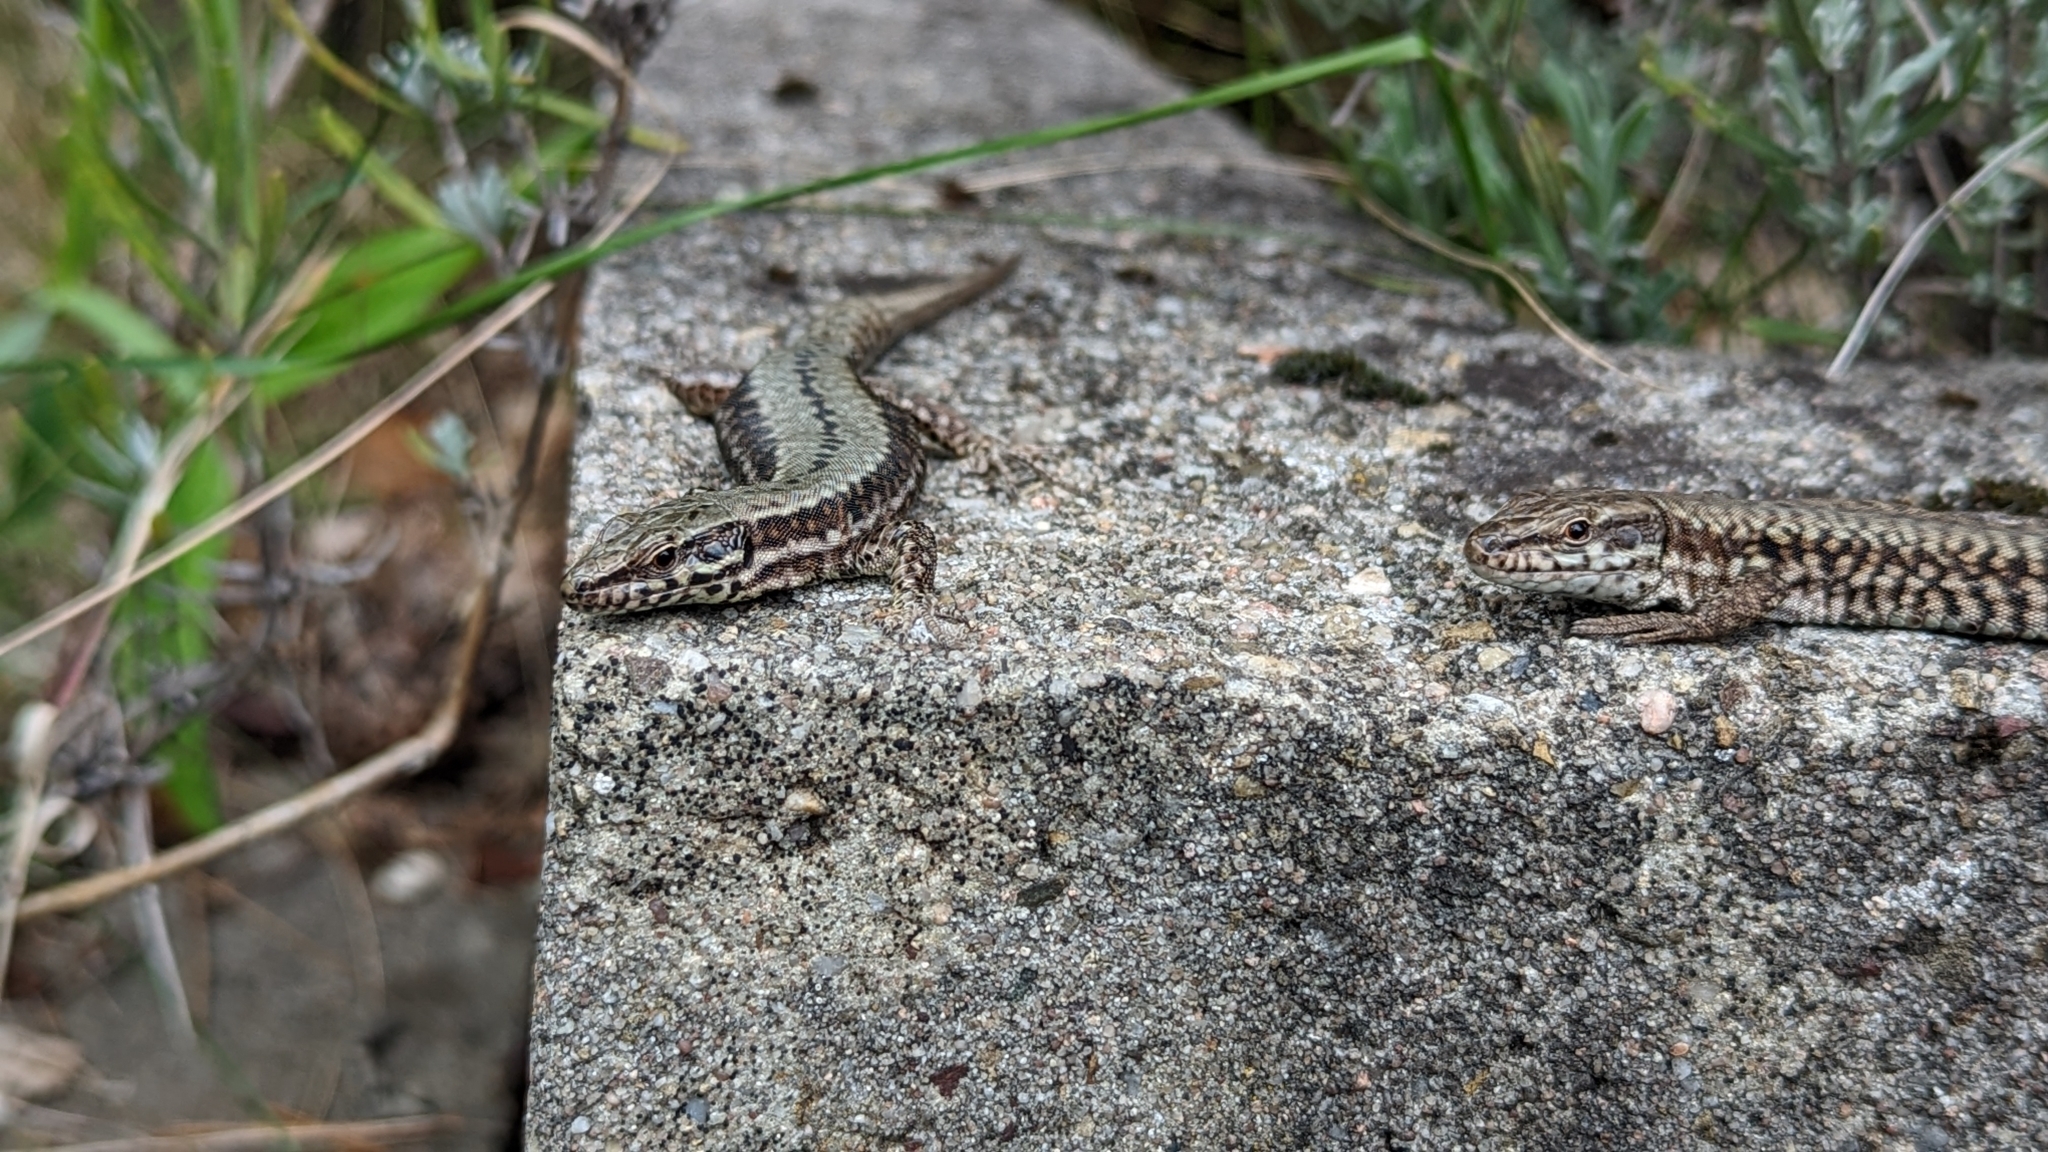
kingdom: Animalia
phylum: Chordata
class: Squamata
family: Lacertidae
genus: Podarcis
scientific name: Podarcis muralis
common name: Common wall lizard
